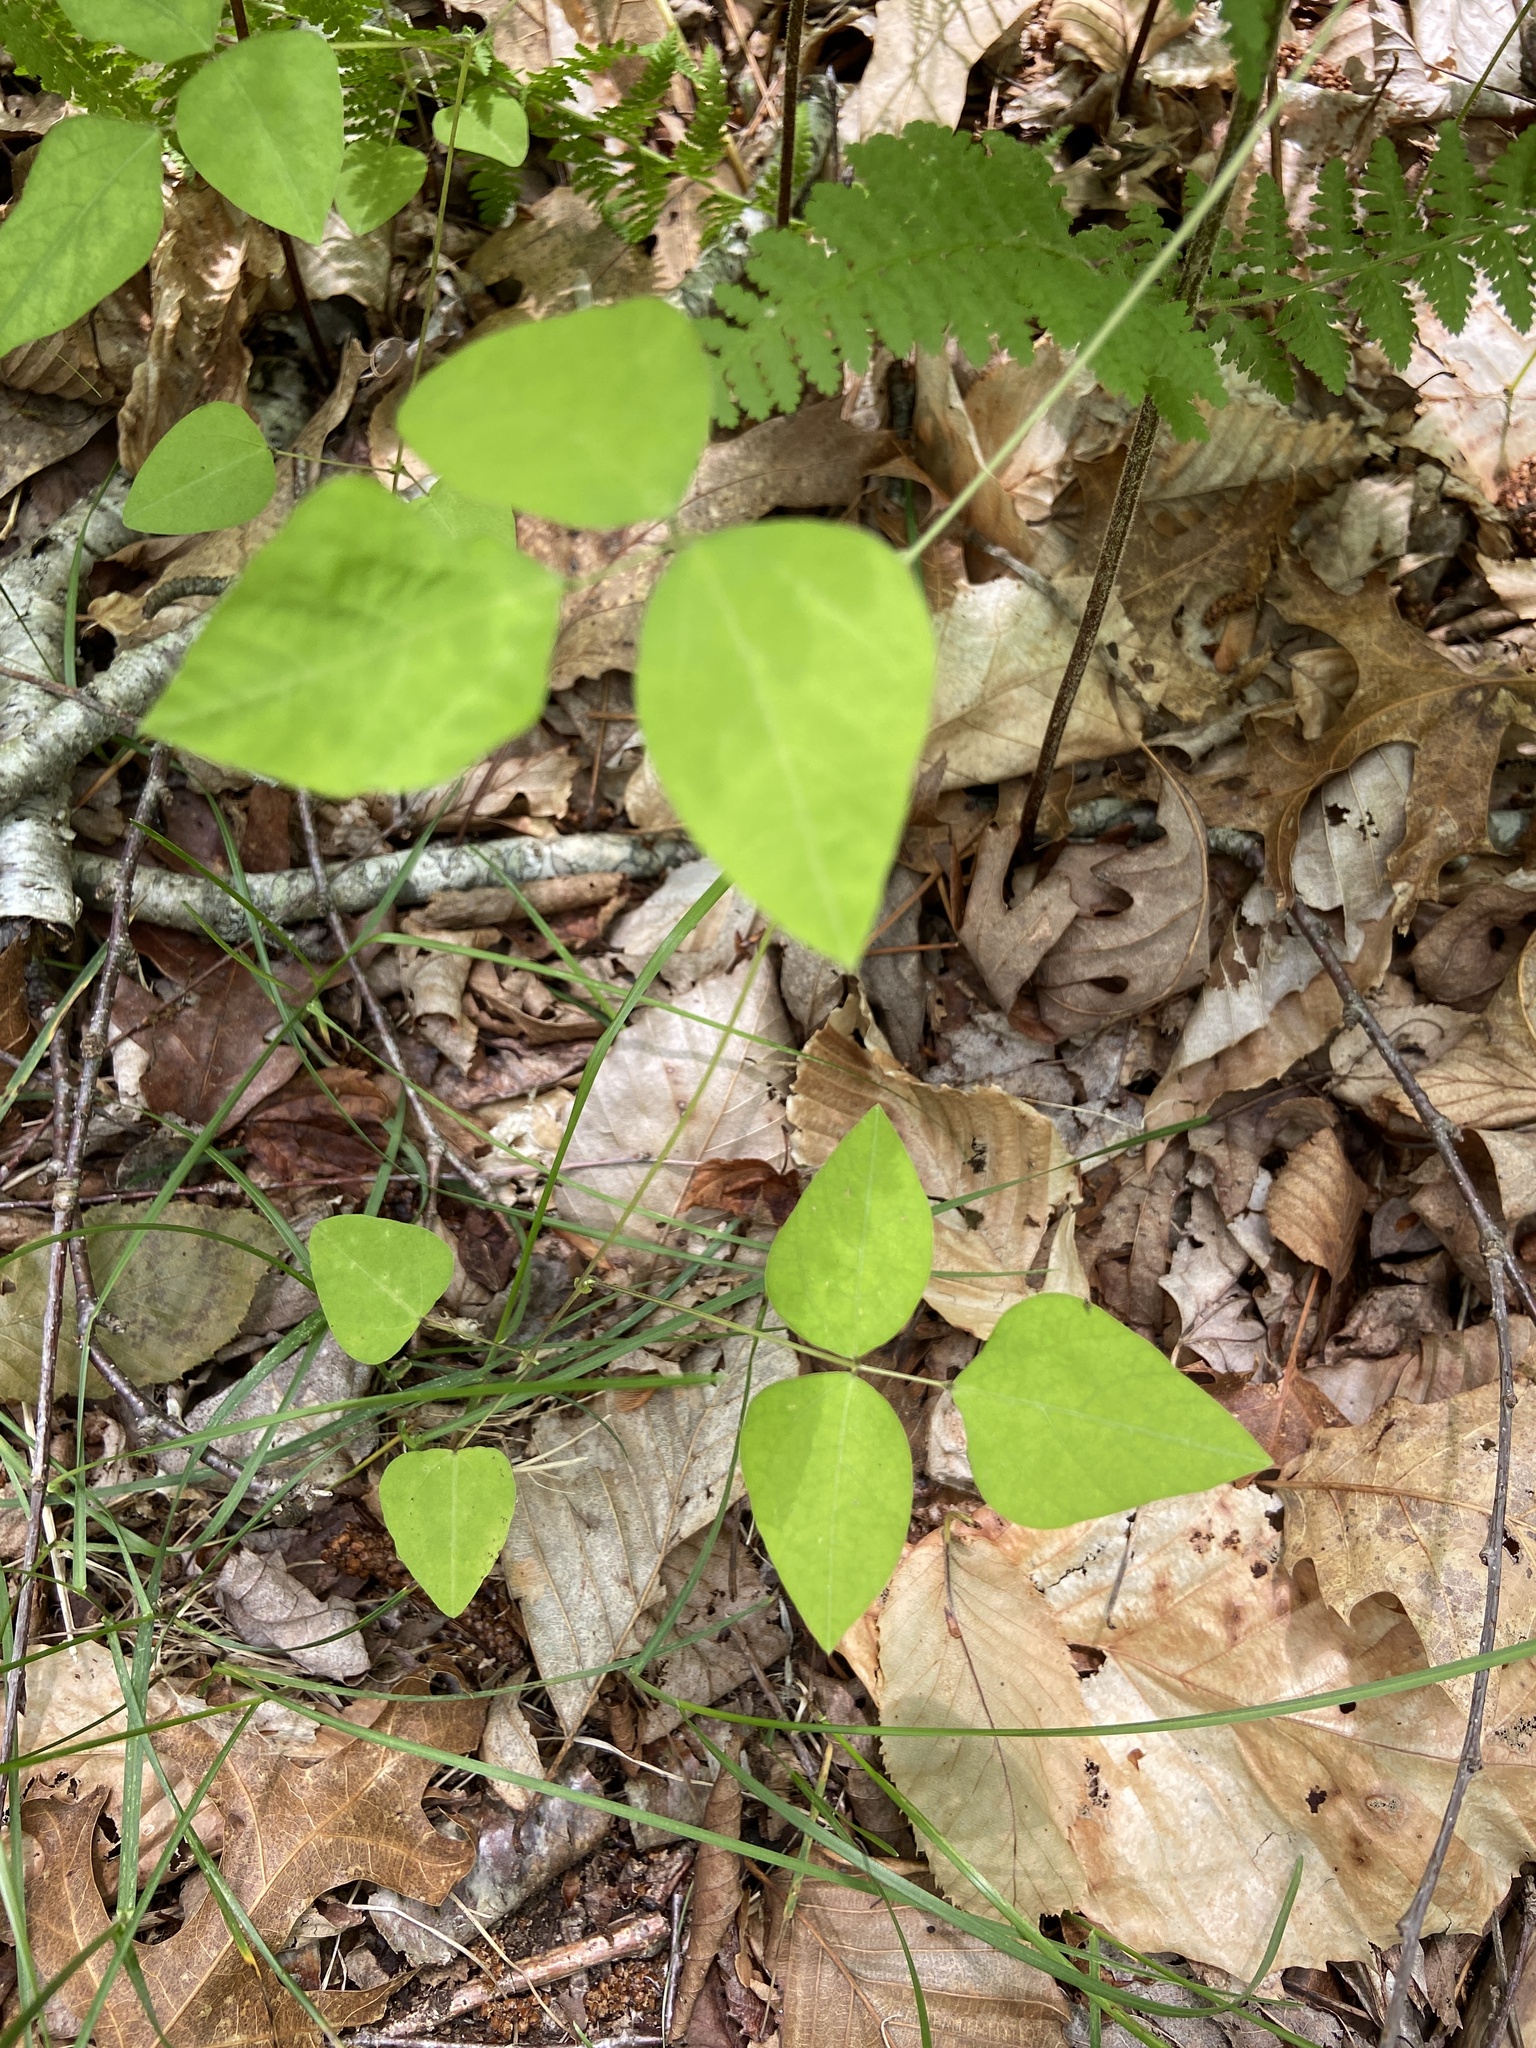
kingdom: Plantae
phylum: Tracheophyta
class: Magnoliopsida
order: Fabales
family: Fabaceae
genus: Amphicarpaea
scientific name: Amphicarpaea bracteata
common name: American hog peanut
